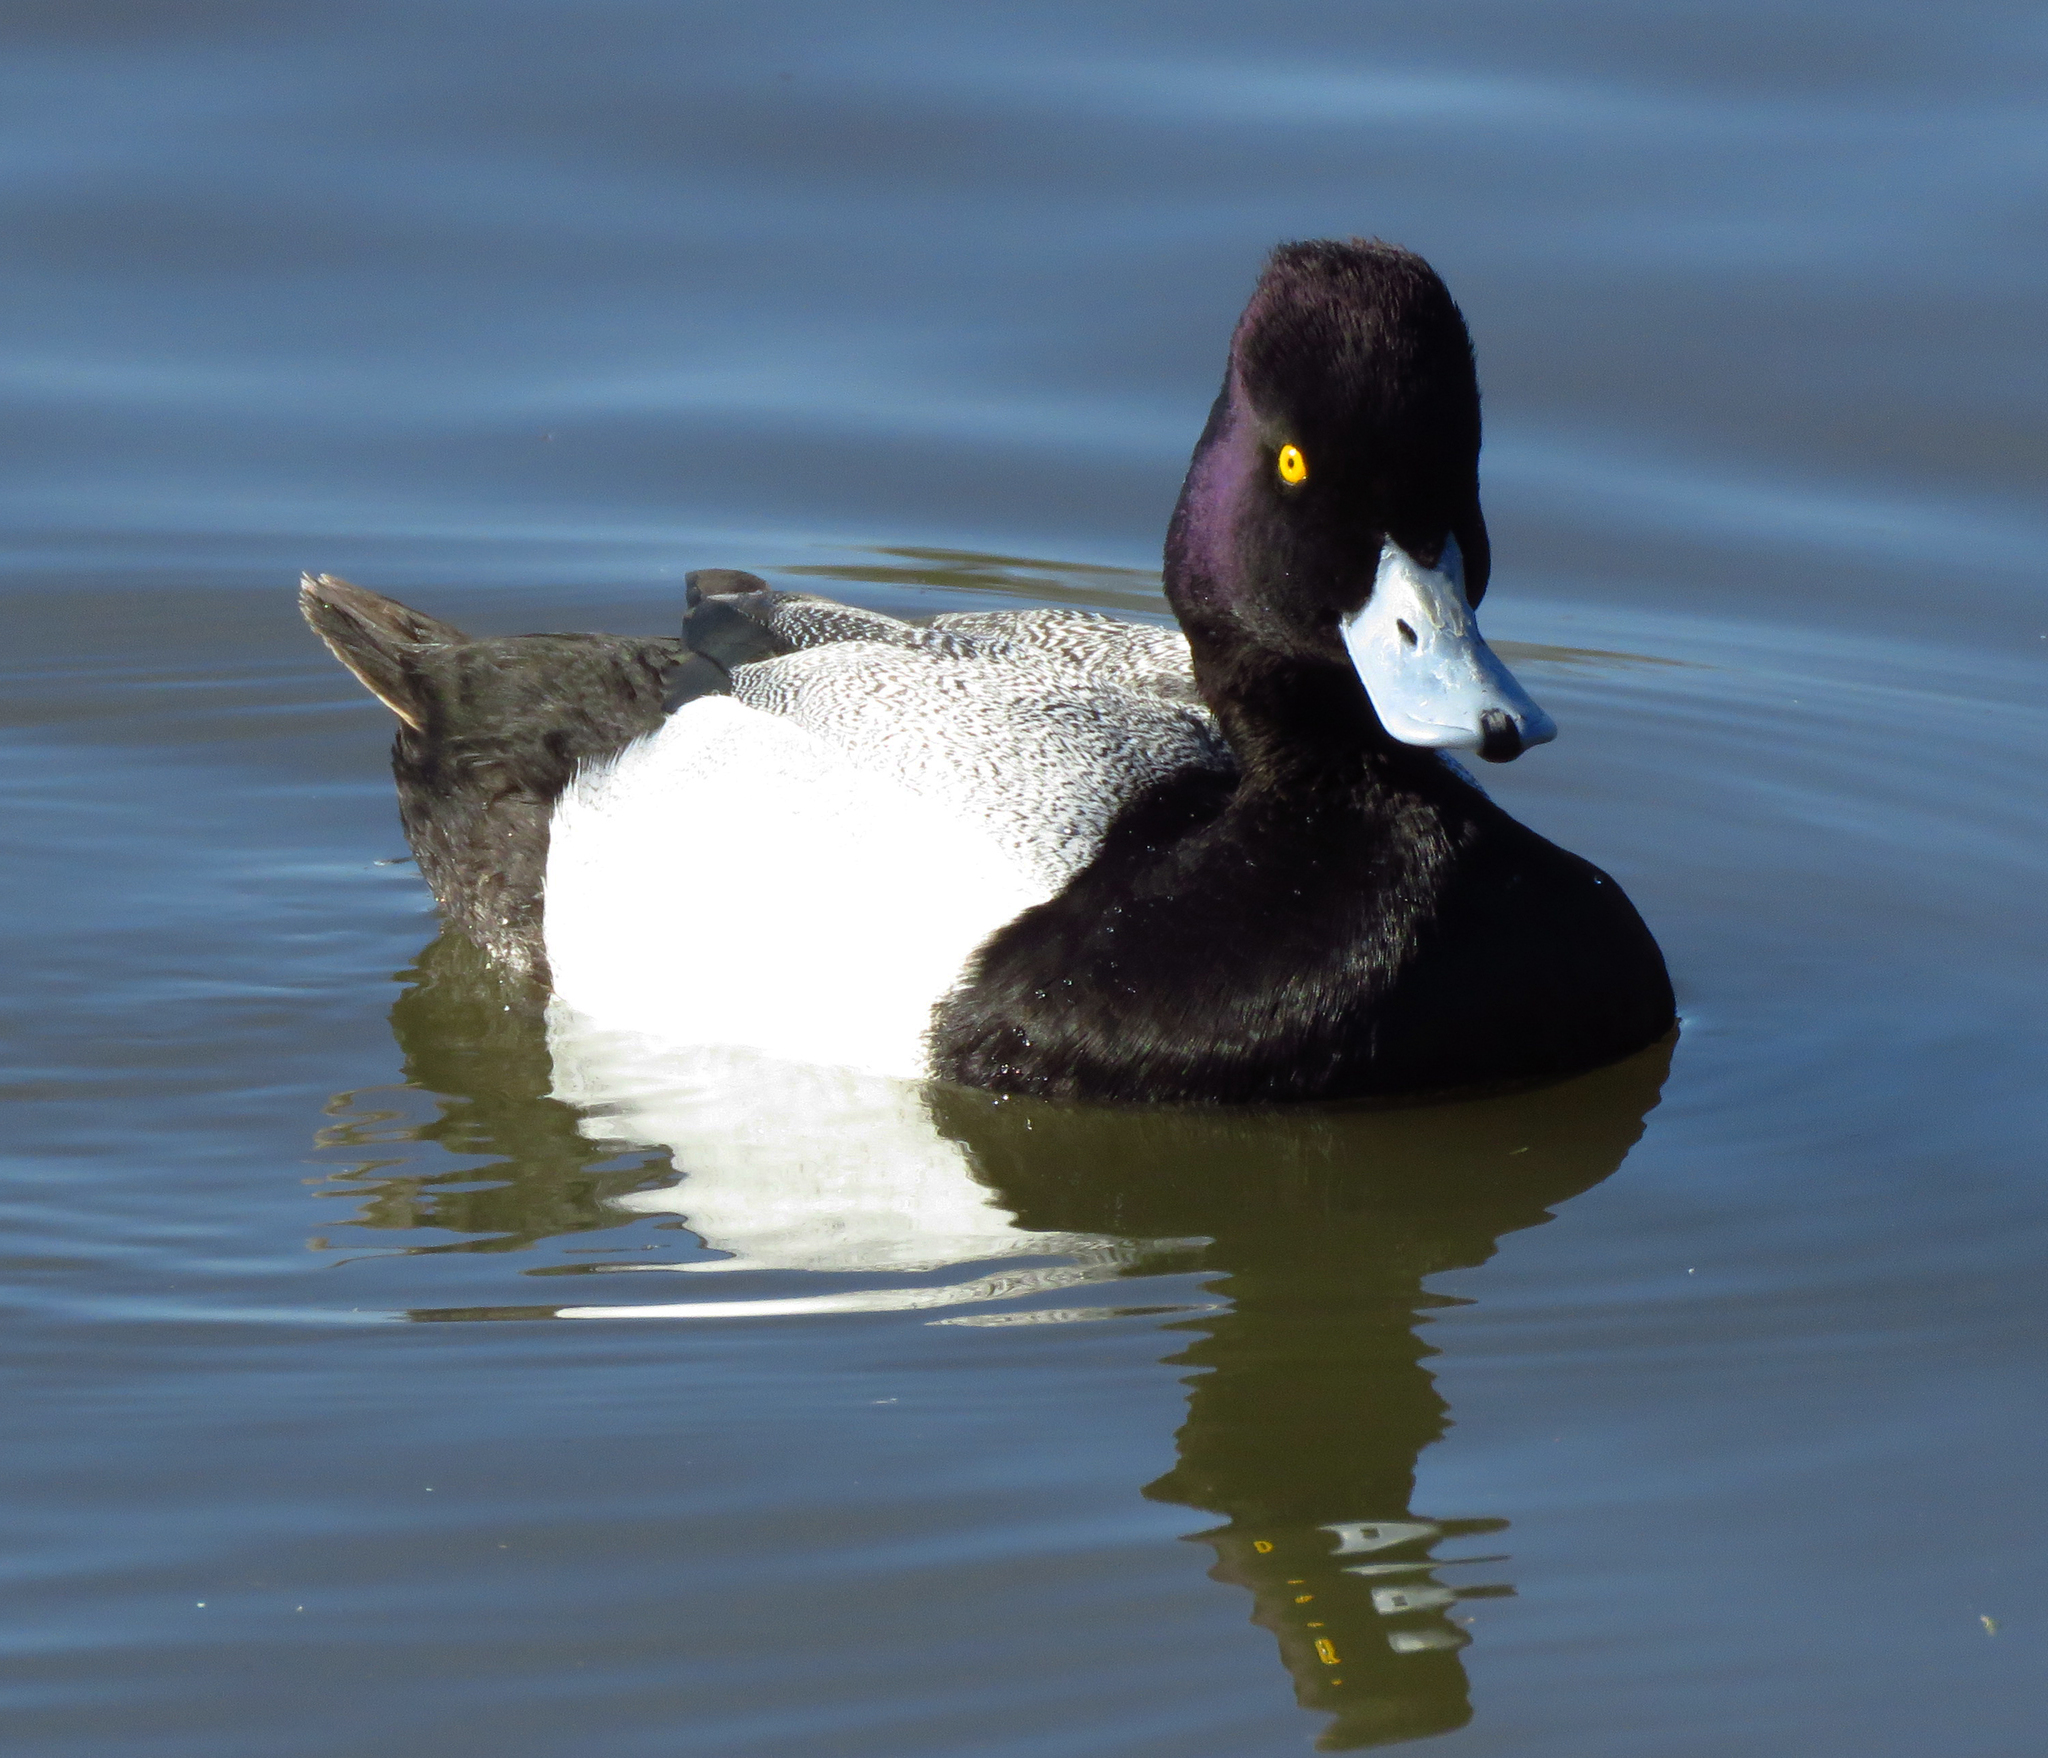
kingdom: Animalia
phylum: Chordata
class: Aves
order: Anseriformes
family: Anatidae
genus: Aythya
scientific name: Aythya affinis
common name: Lesser scaup
